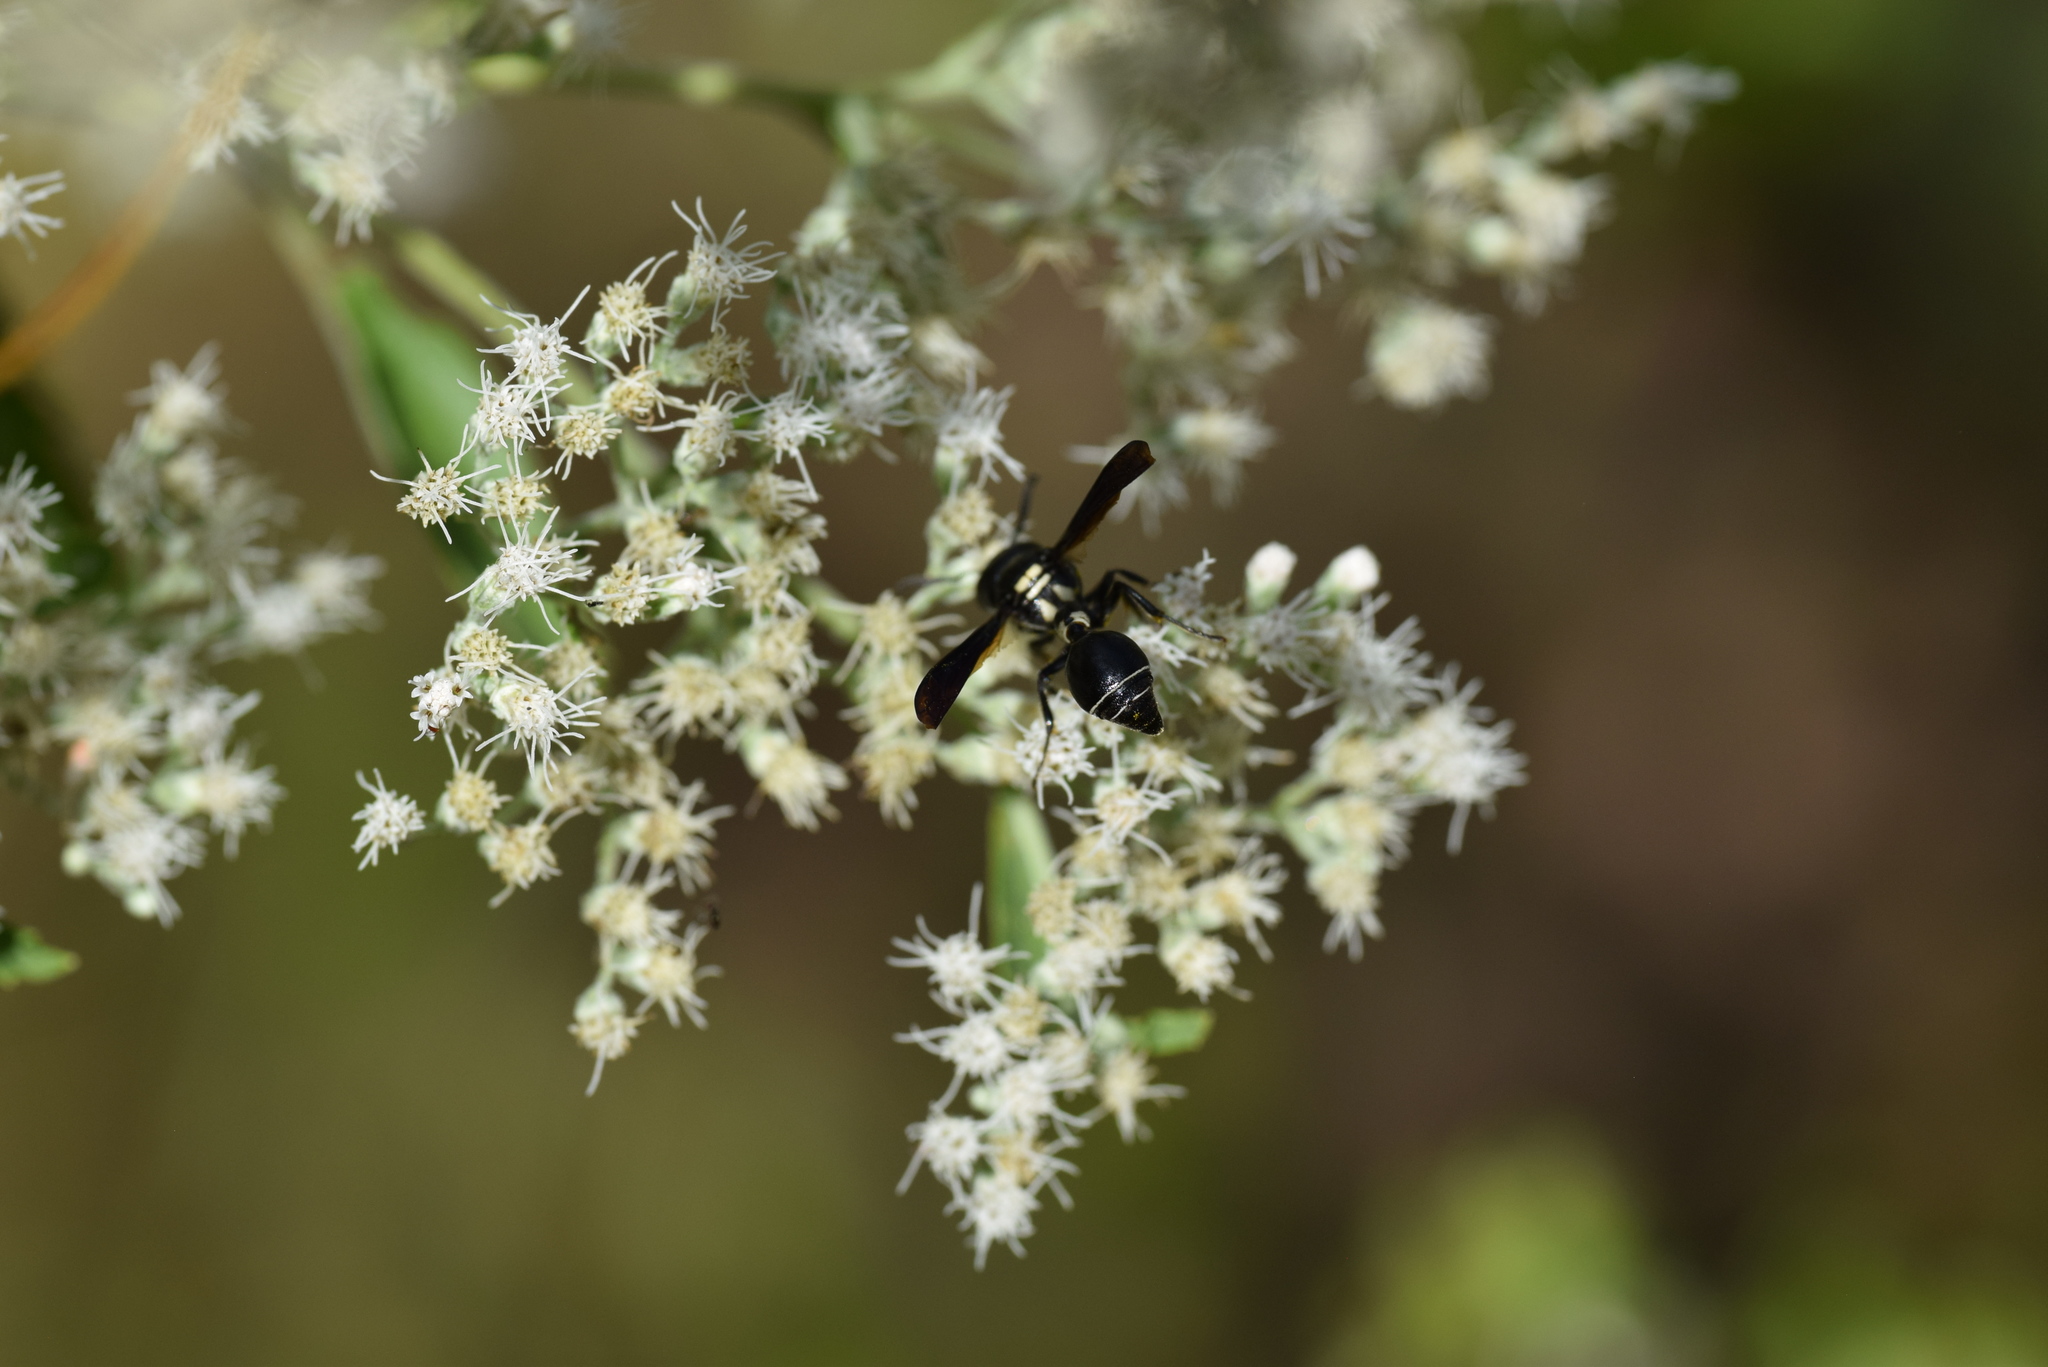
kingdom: Animalia
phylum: Arthropoda
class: Insecta
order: Hymenoptera
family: Eumenidae
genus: Zethus
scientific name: Zethus spinipes
